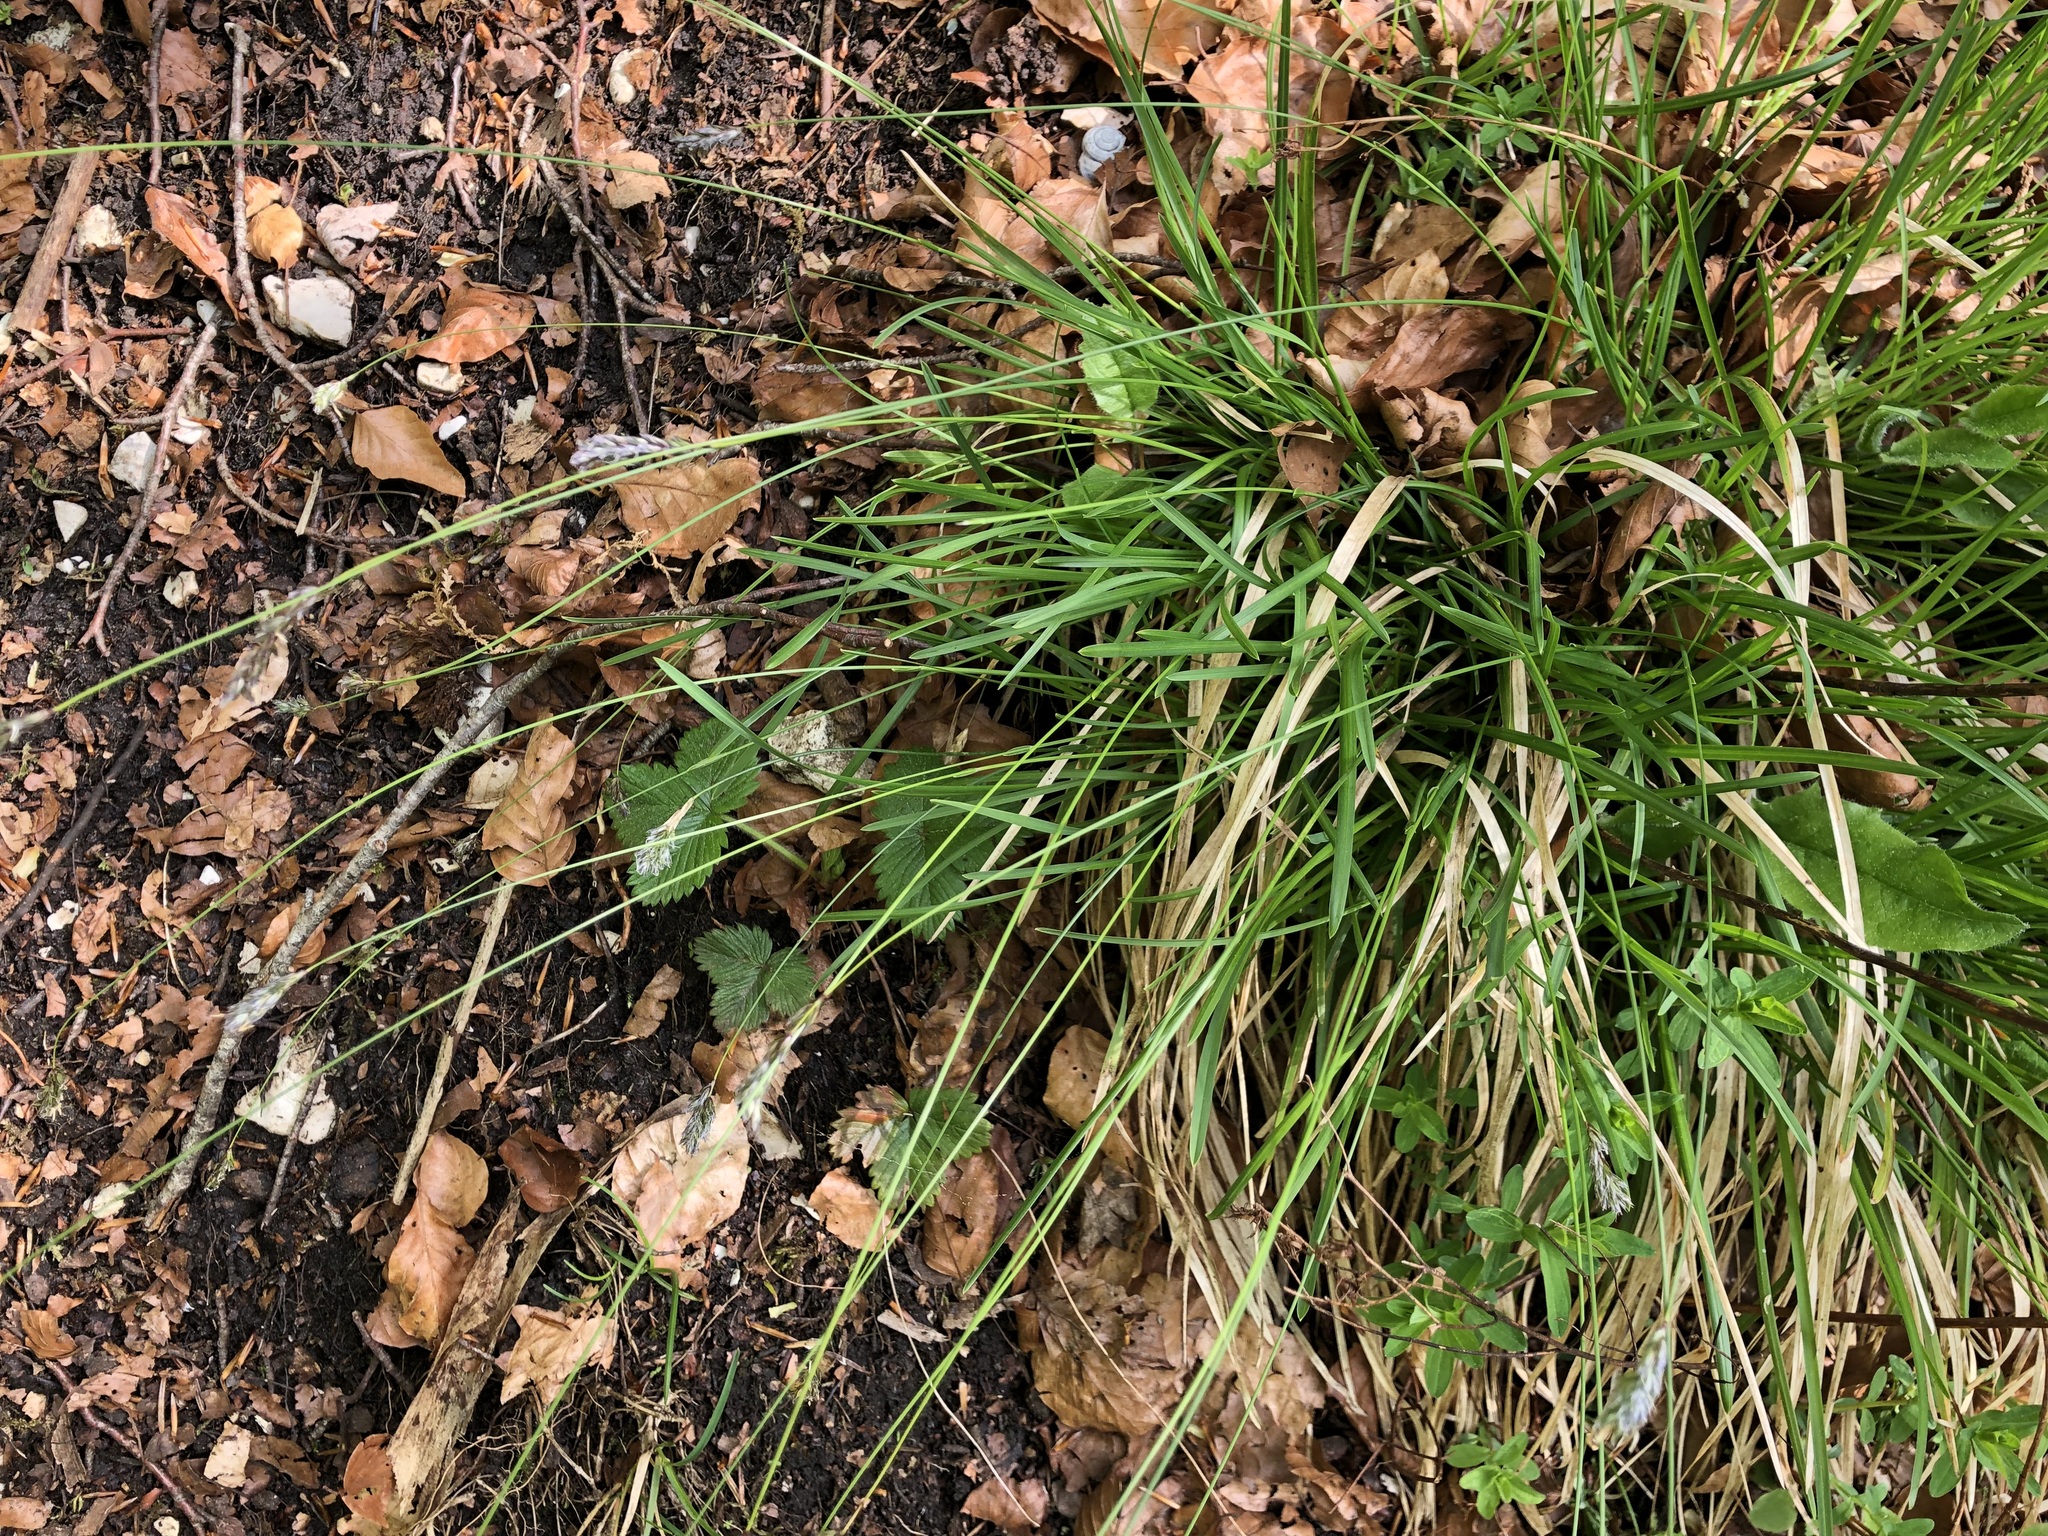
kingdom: Plantae
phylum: Tracheophyta
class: Liliopsida
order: Poales
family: Poaceae
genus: Sesleria
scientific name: Sesleria caerulea
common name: Blue moor-grass
